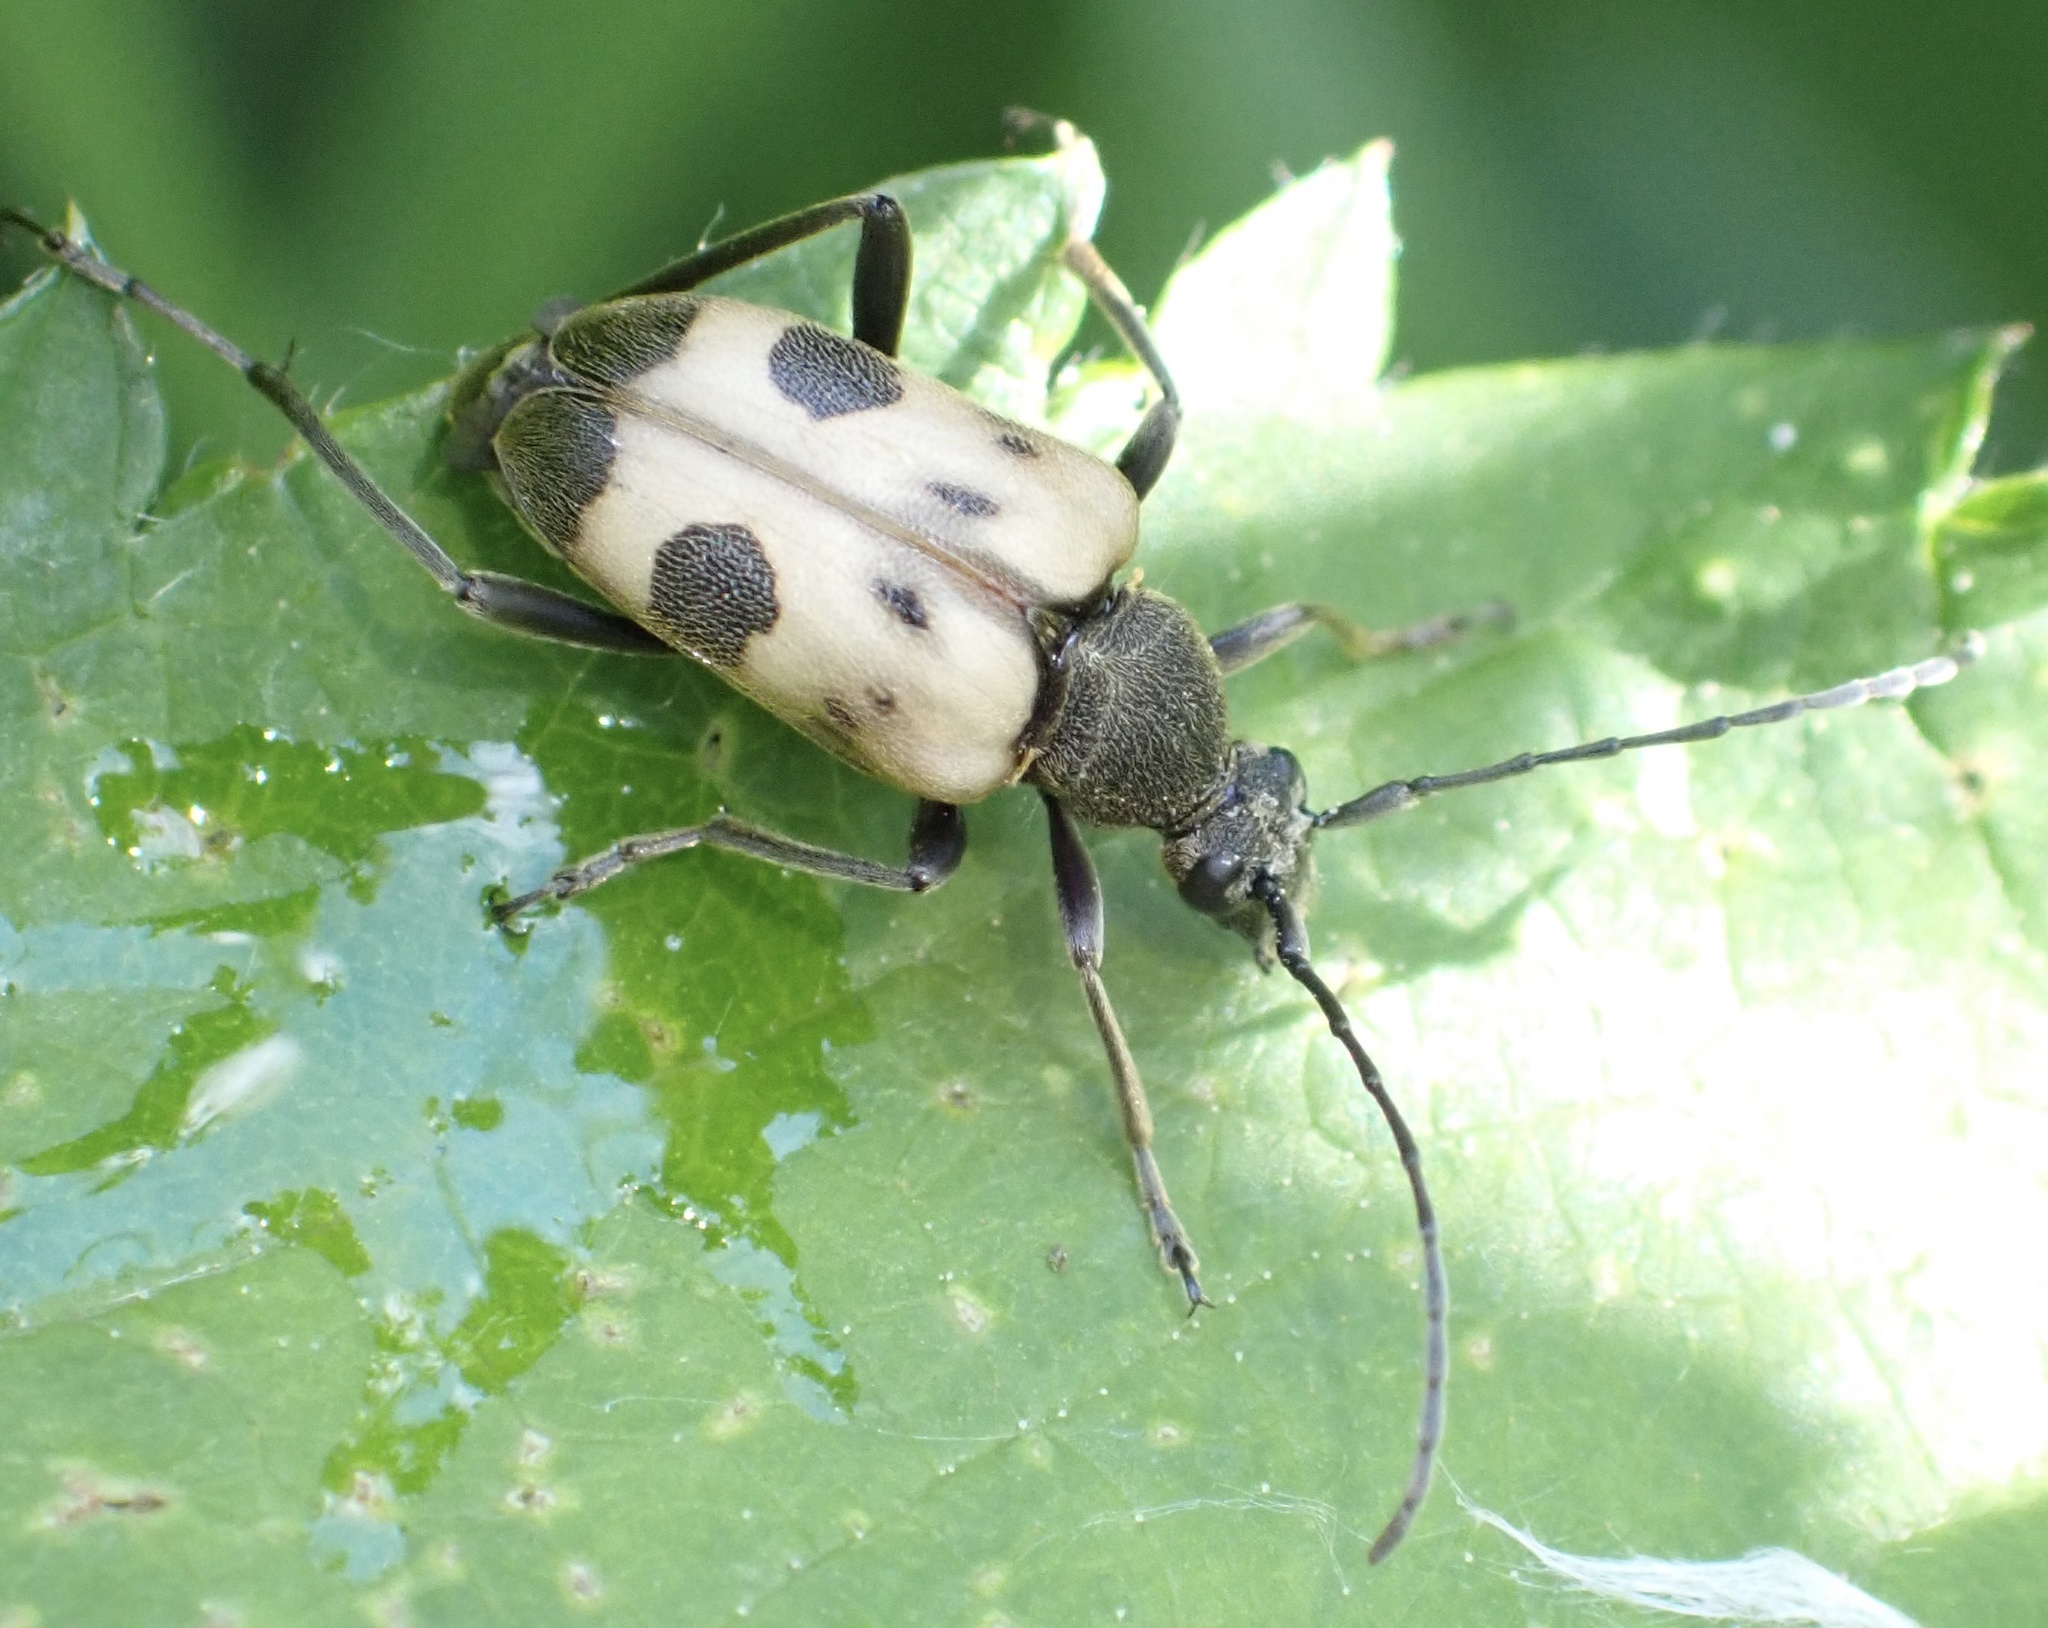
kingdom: Animalia
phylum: Arthropoda
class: Insecta
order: Coleoptera
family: Cerambycidae
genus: Pachytodes
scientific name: Pachytodes cerambyciformis
